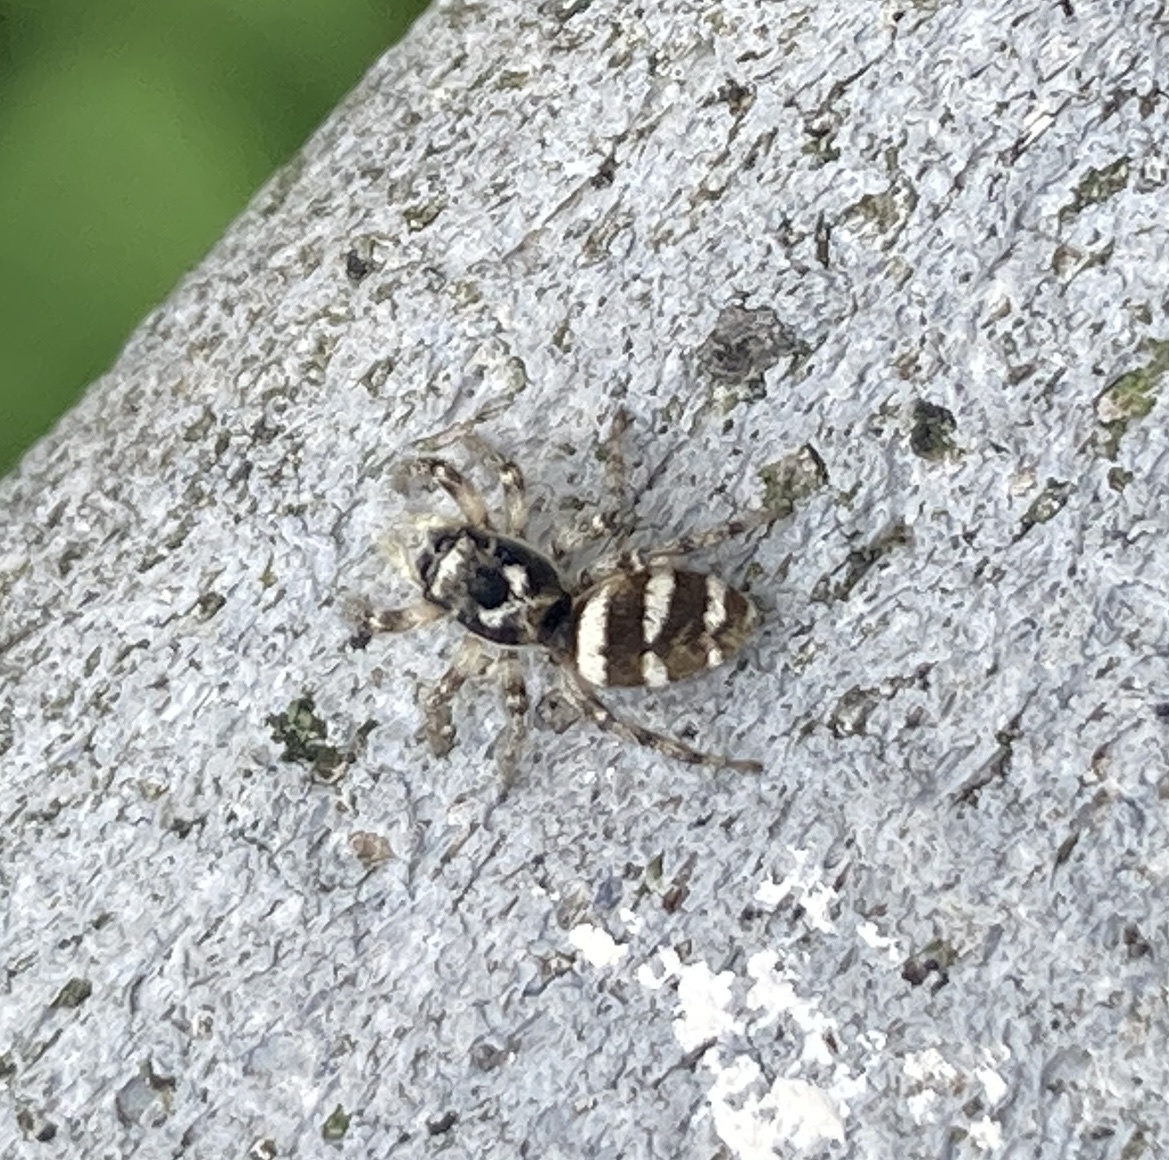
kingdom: Animalia
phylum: Arthropoda
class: Arachnida
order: Araneae
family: Salticidae
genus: Salticus
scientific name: Salticus scenicus
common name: Zebra jumper
